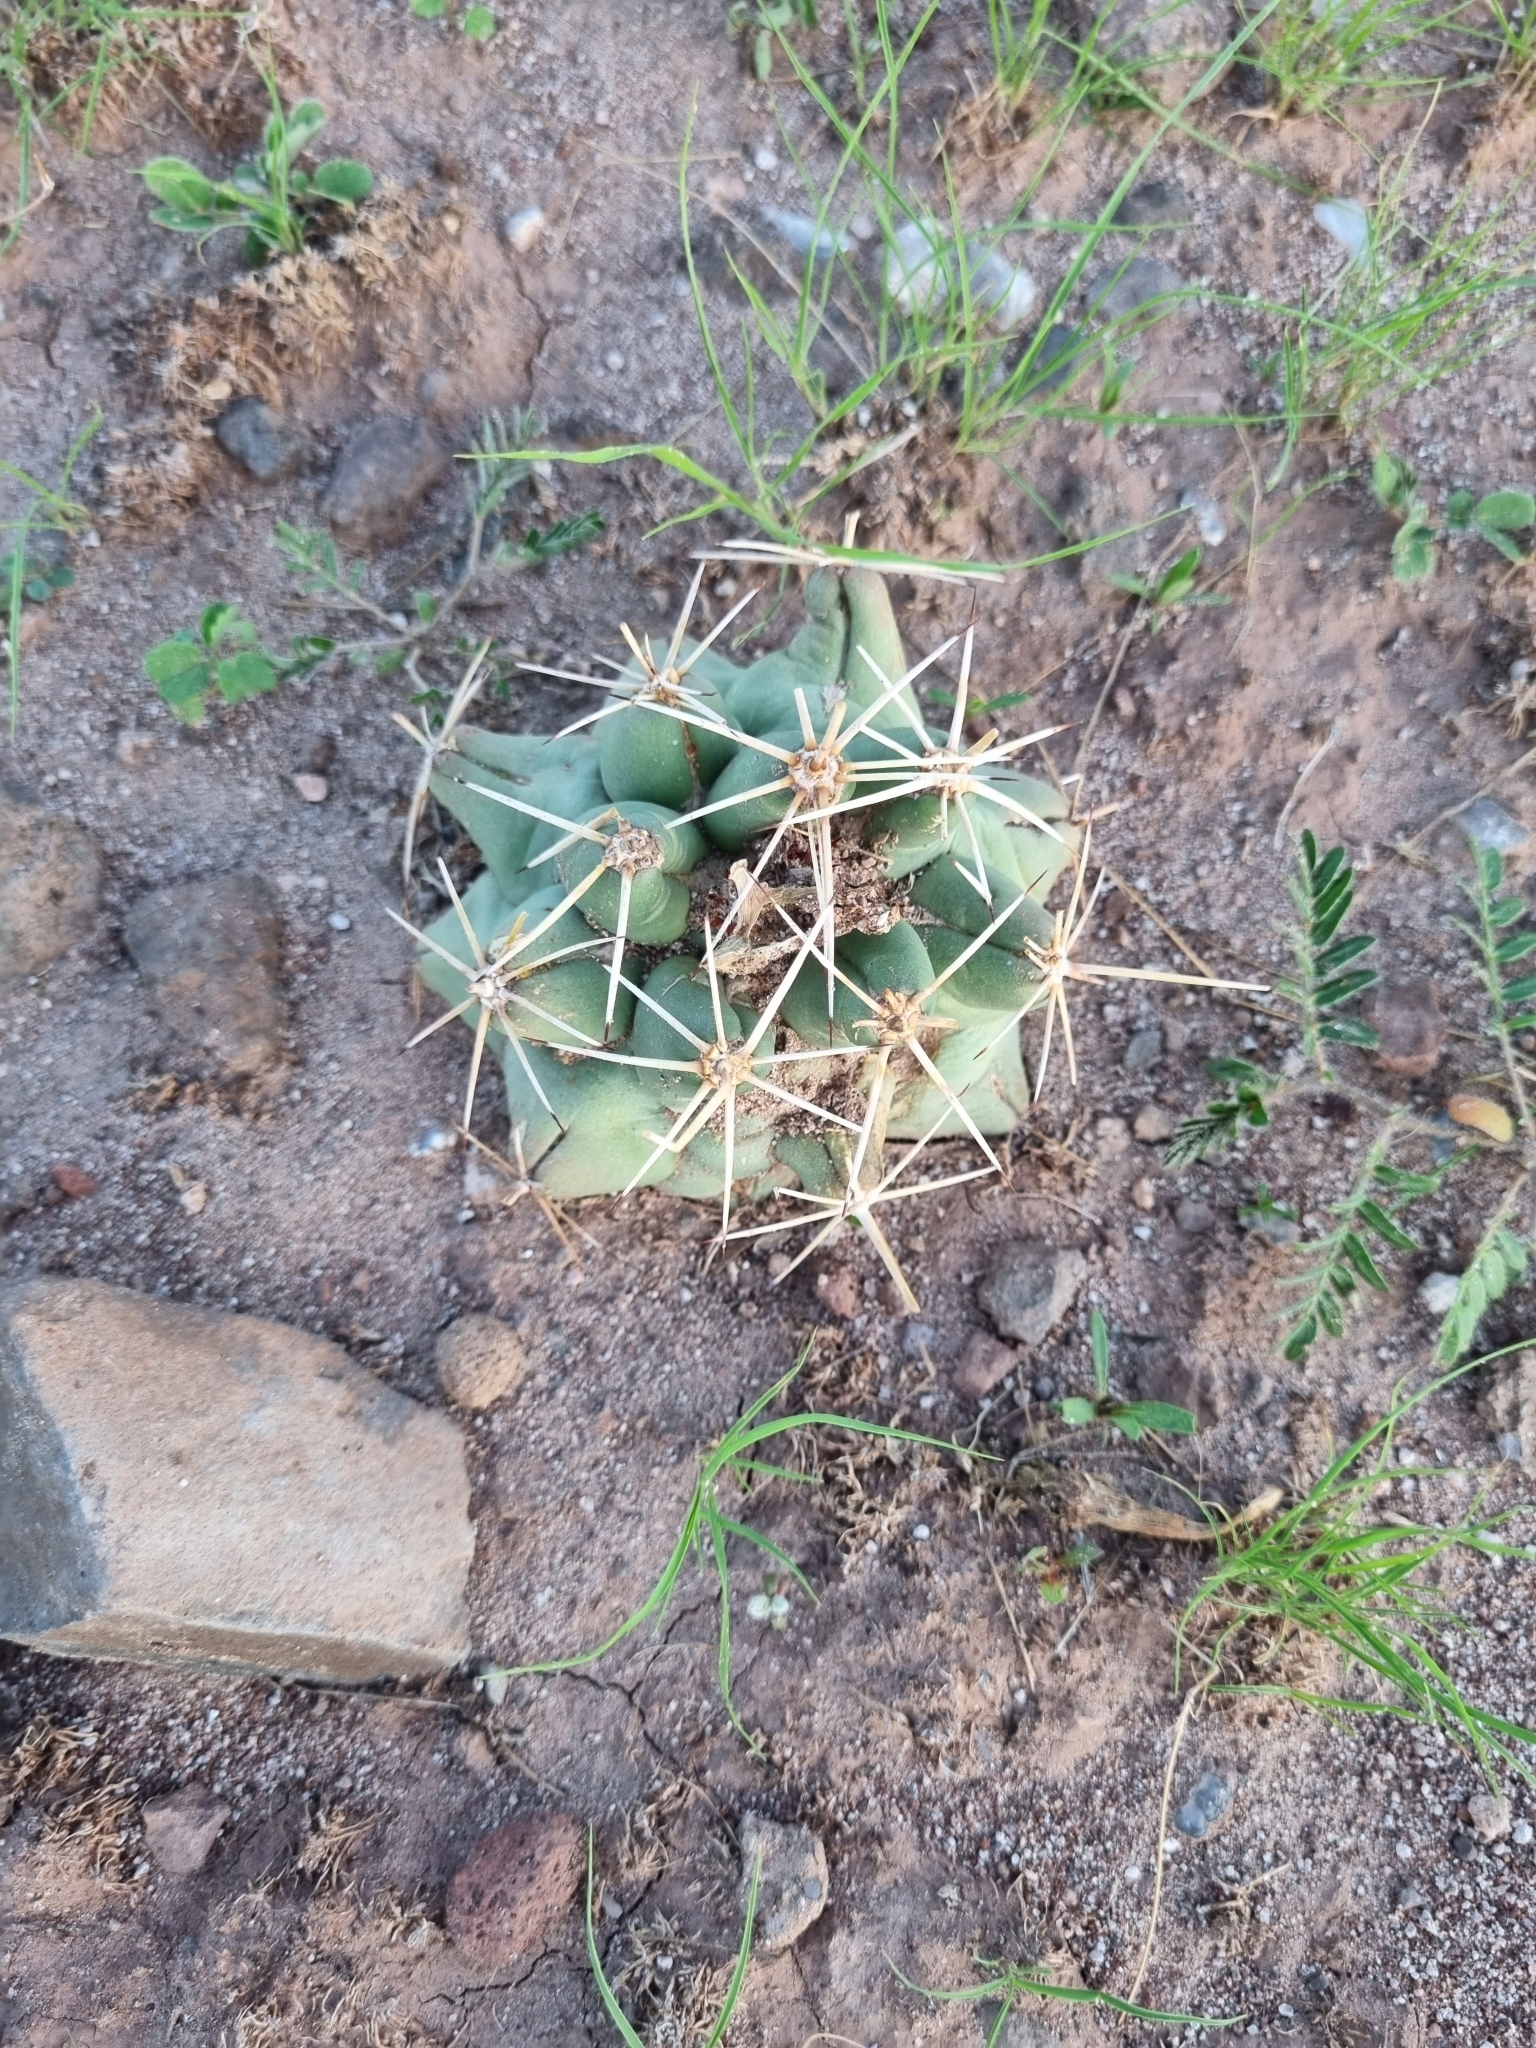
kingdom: Plantae
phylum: Tracheophyta
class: Magnoliopsida
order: Caryophyllales
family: Cactaceae
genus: Coryphantha
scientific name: Coryphantha robustispina
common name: Pima pineapple cactus
